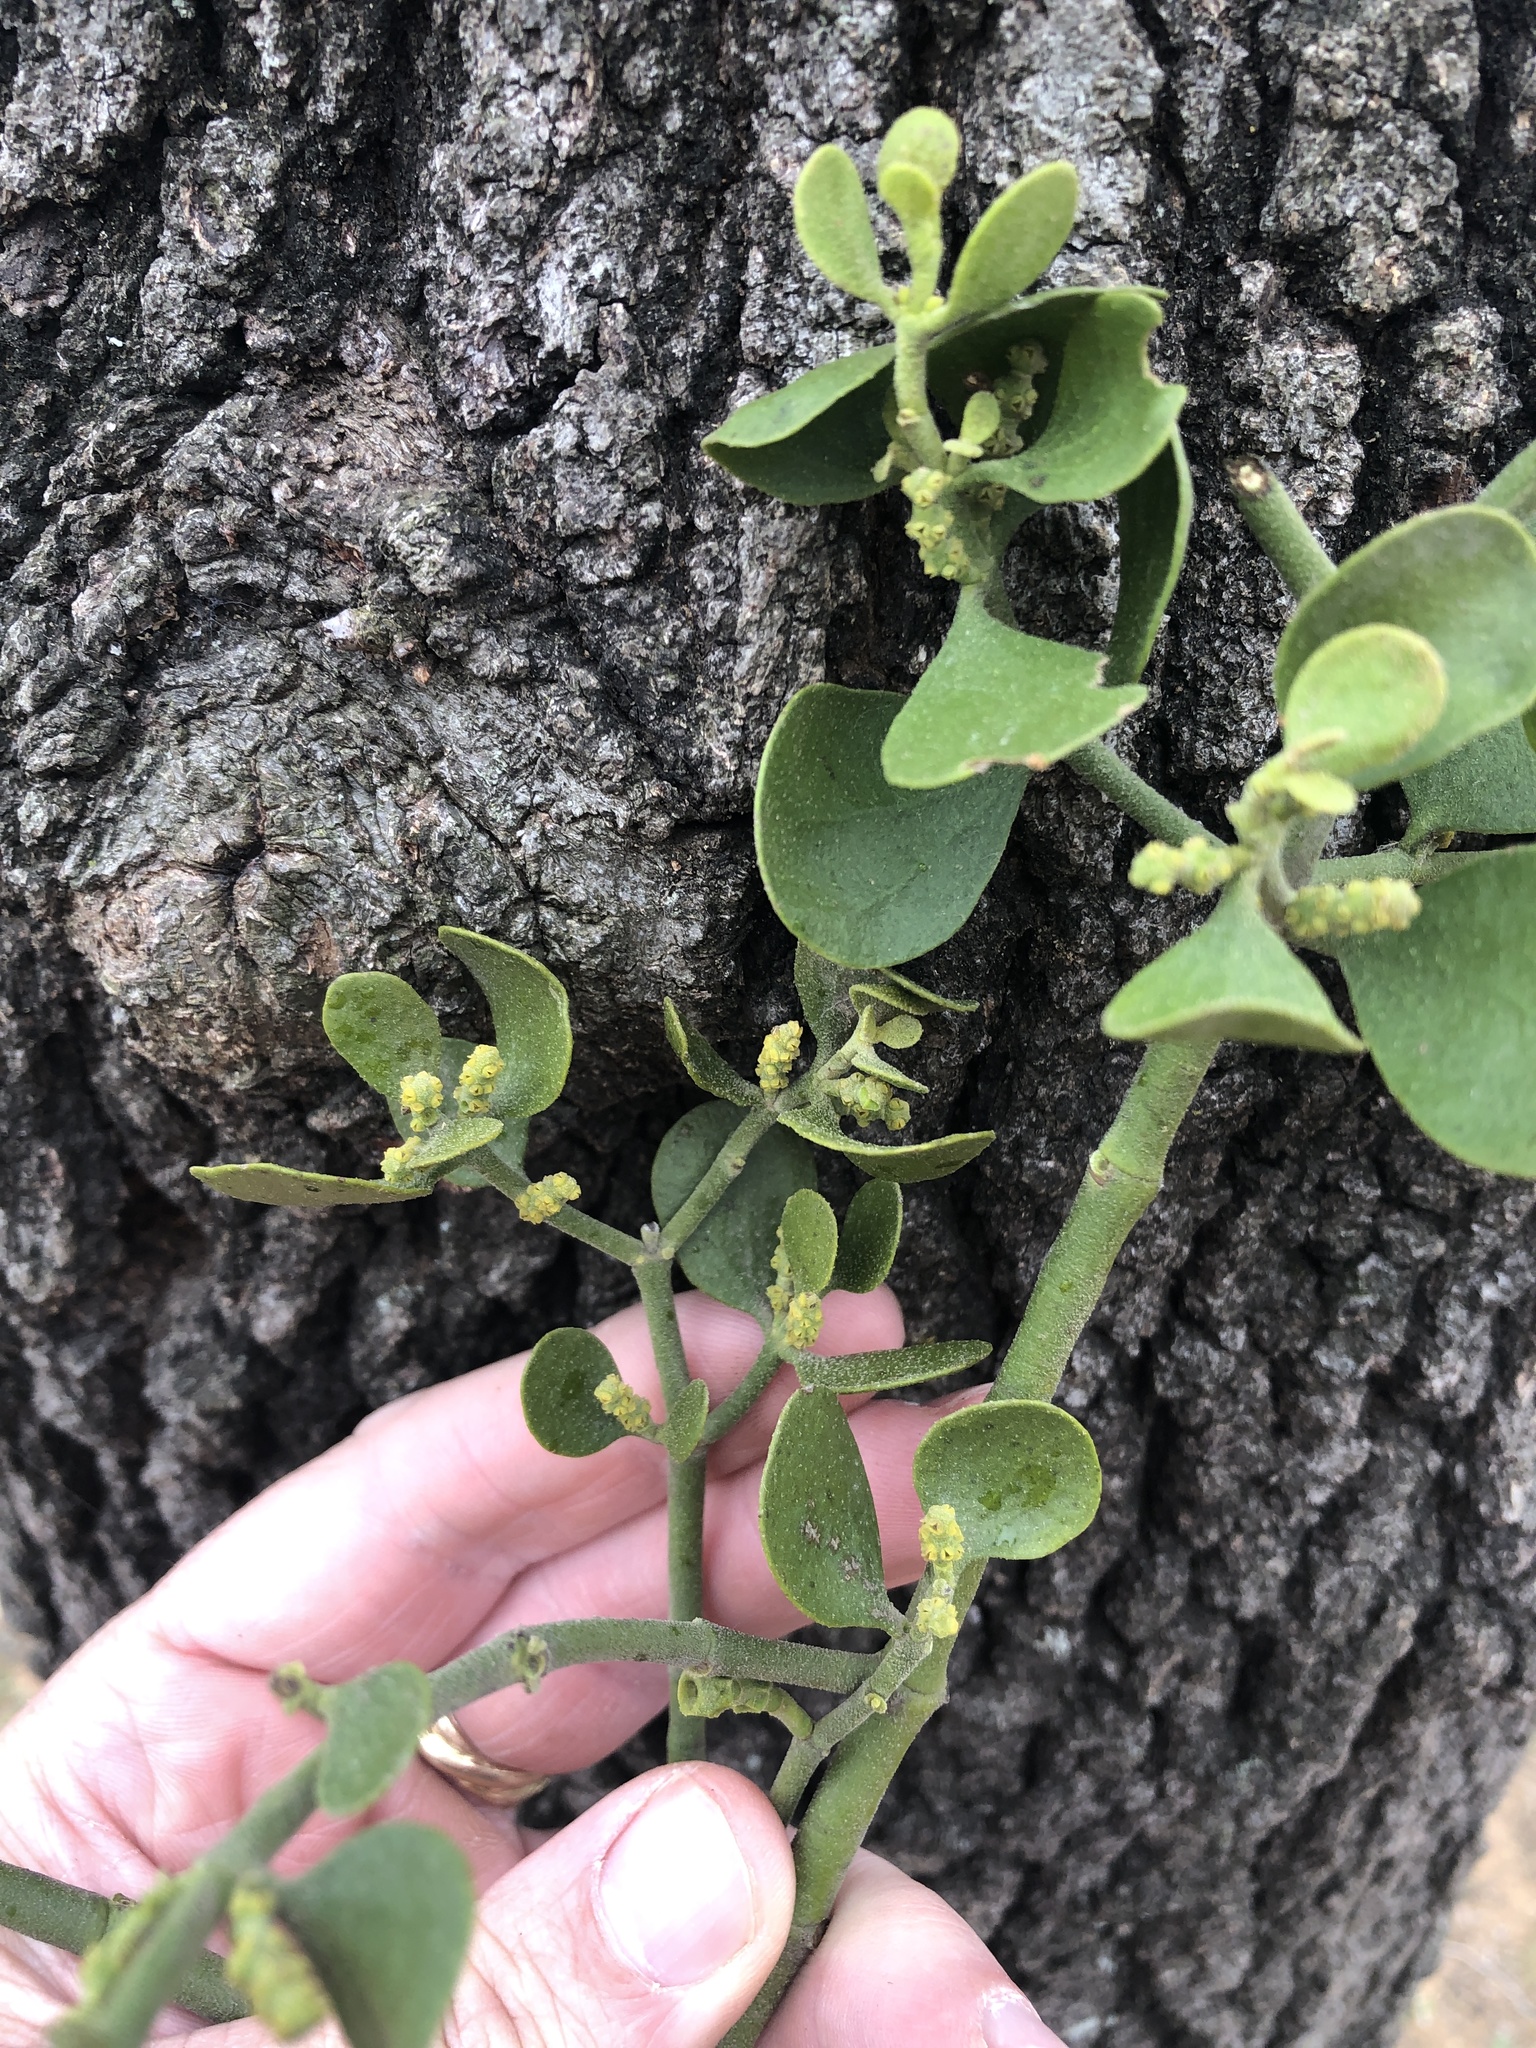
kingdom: Plantae
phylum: Tracheophyta
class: Magnoliopsida
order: Santalales
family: Viscaceae
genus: Phoradendron
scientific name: Phoradendron leucarpum
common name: Pacific mistletoe
